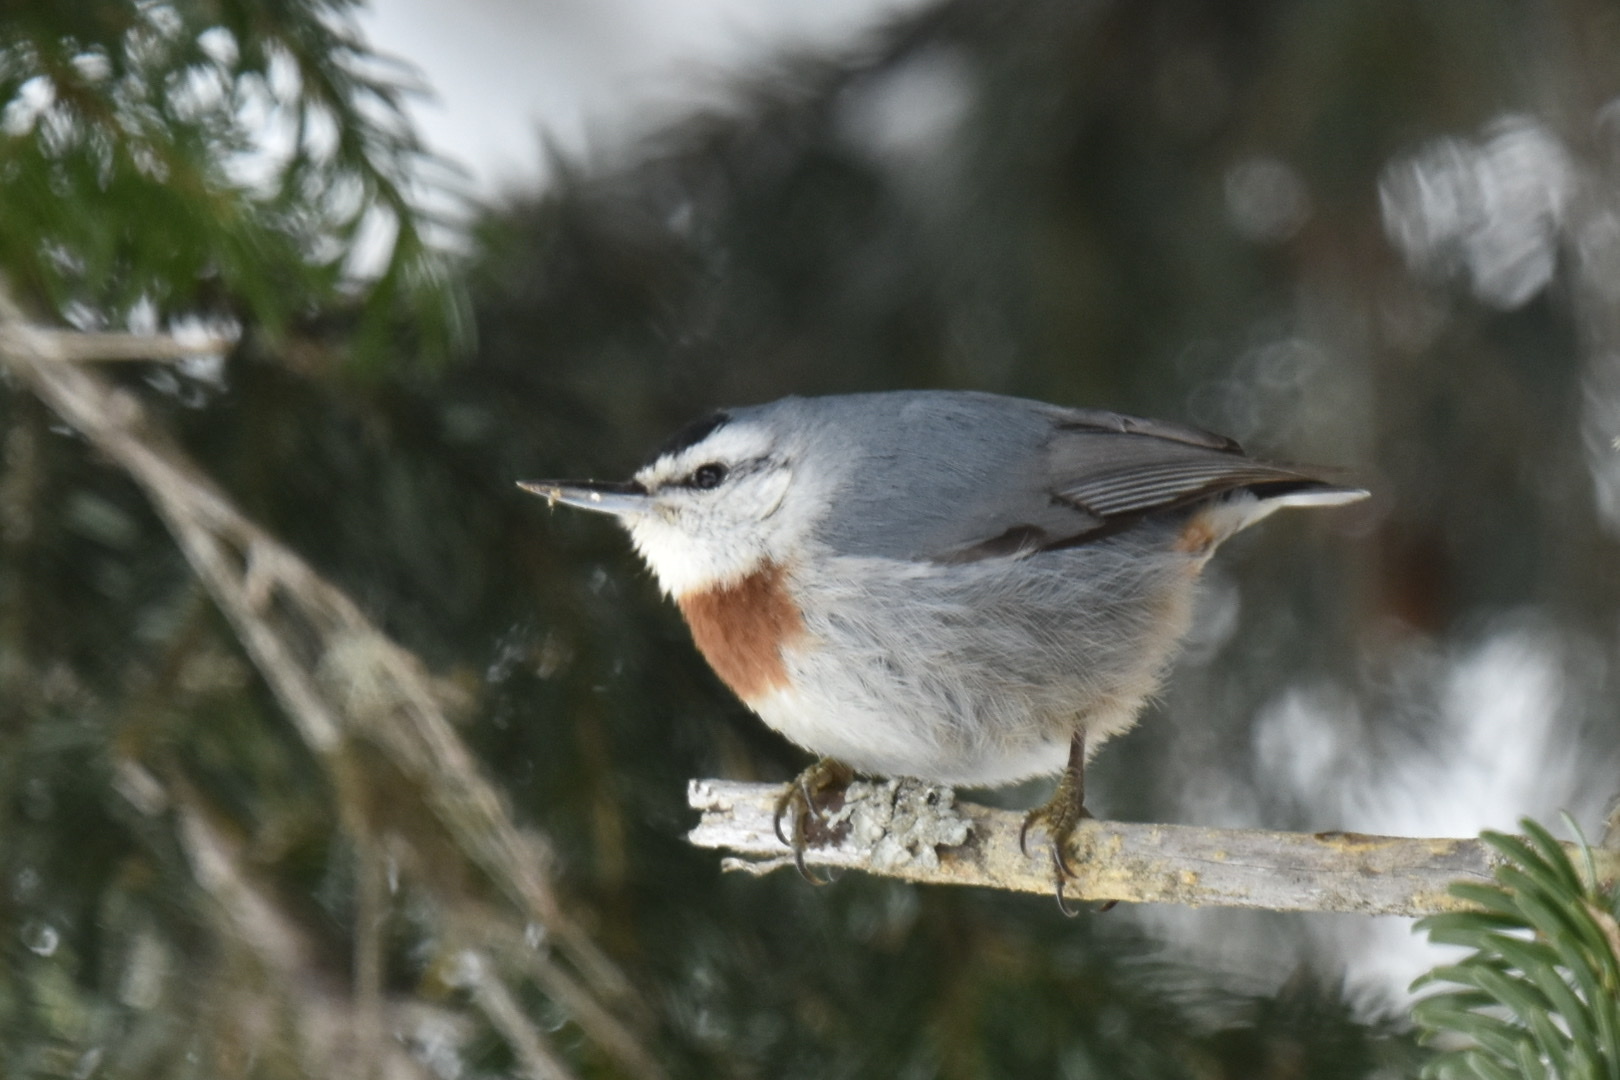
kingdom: Animalia
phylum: Chordata
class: Aves
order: Passeriformes
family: Sittidae
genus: Sitta
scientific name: Sitta krueperi
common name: Krüper's nuthatch
